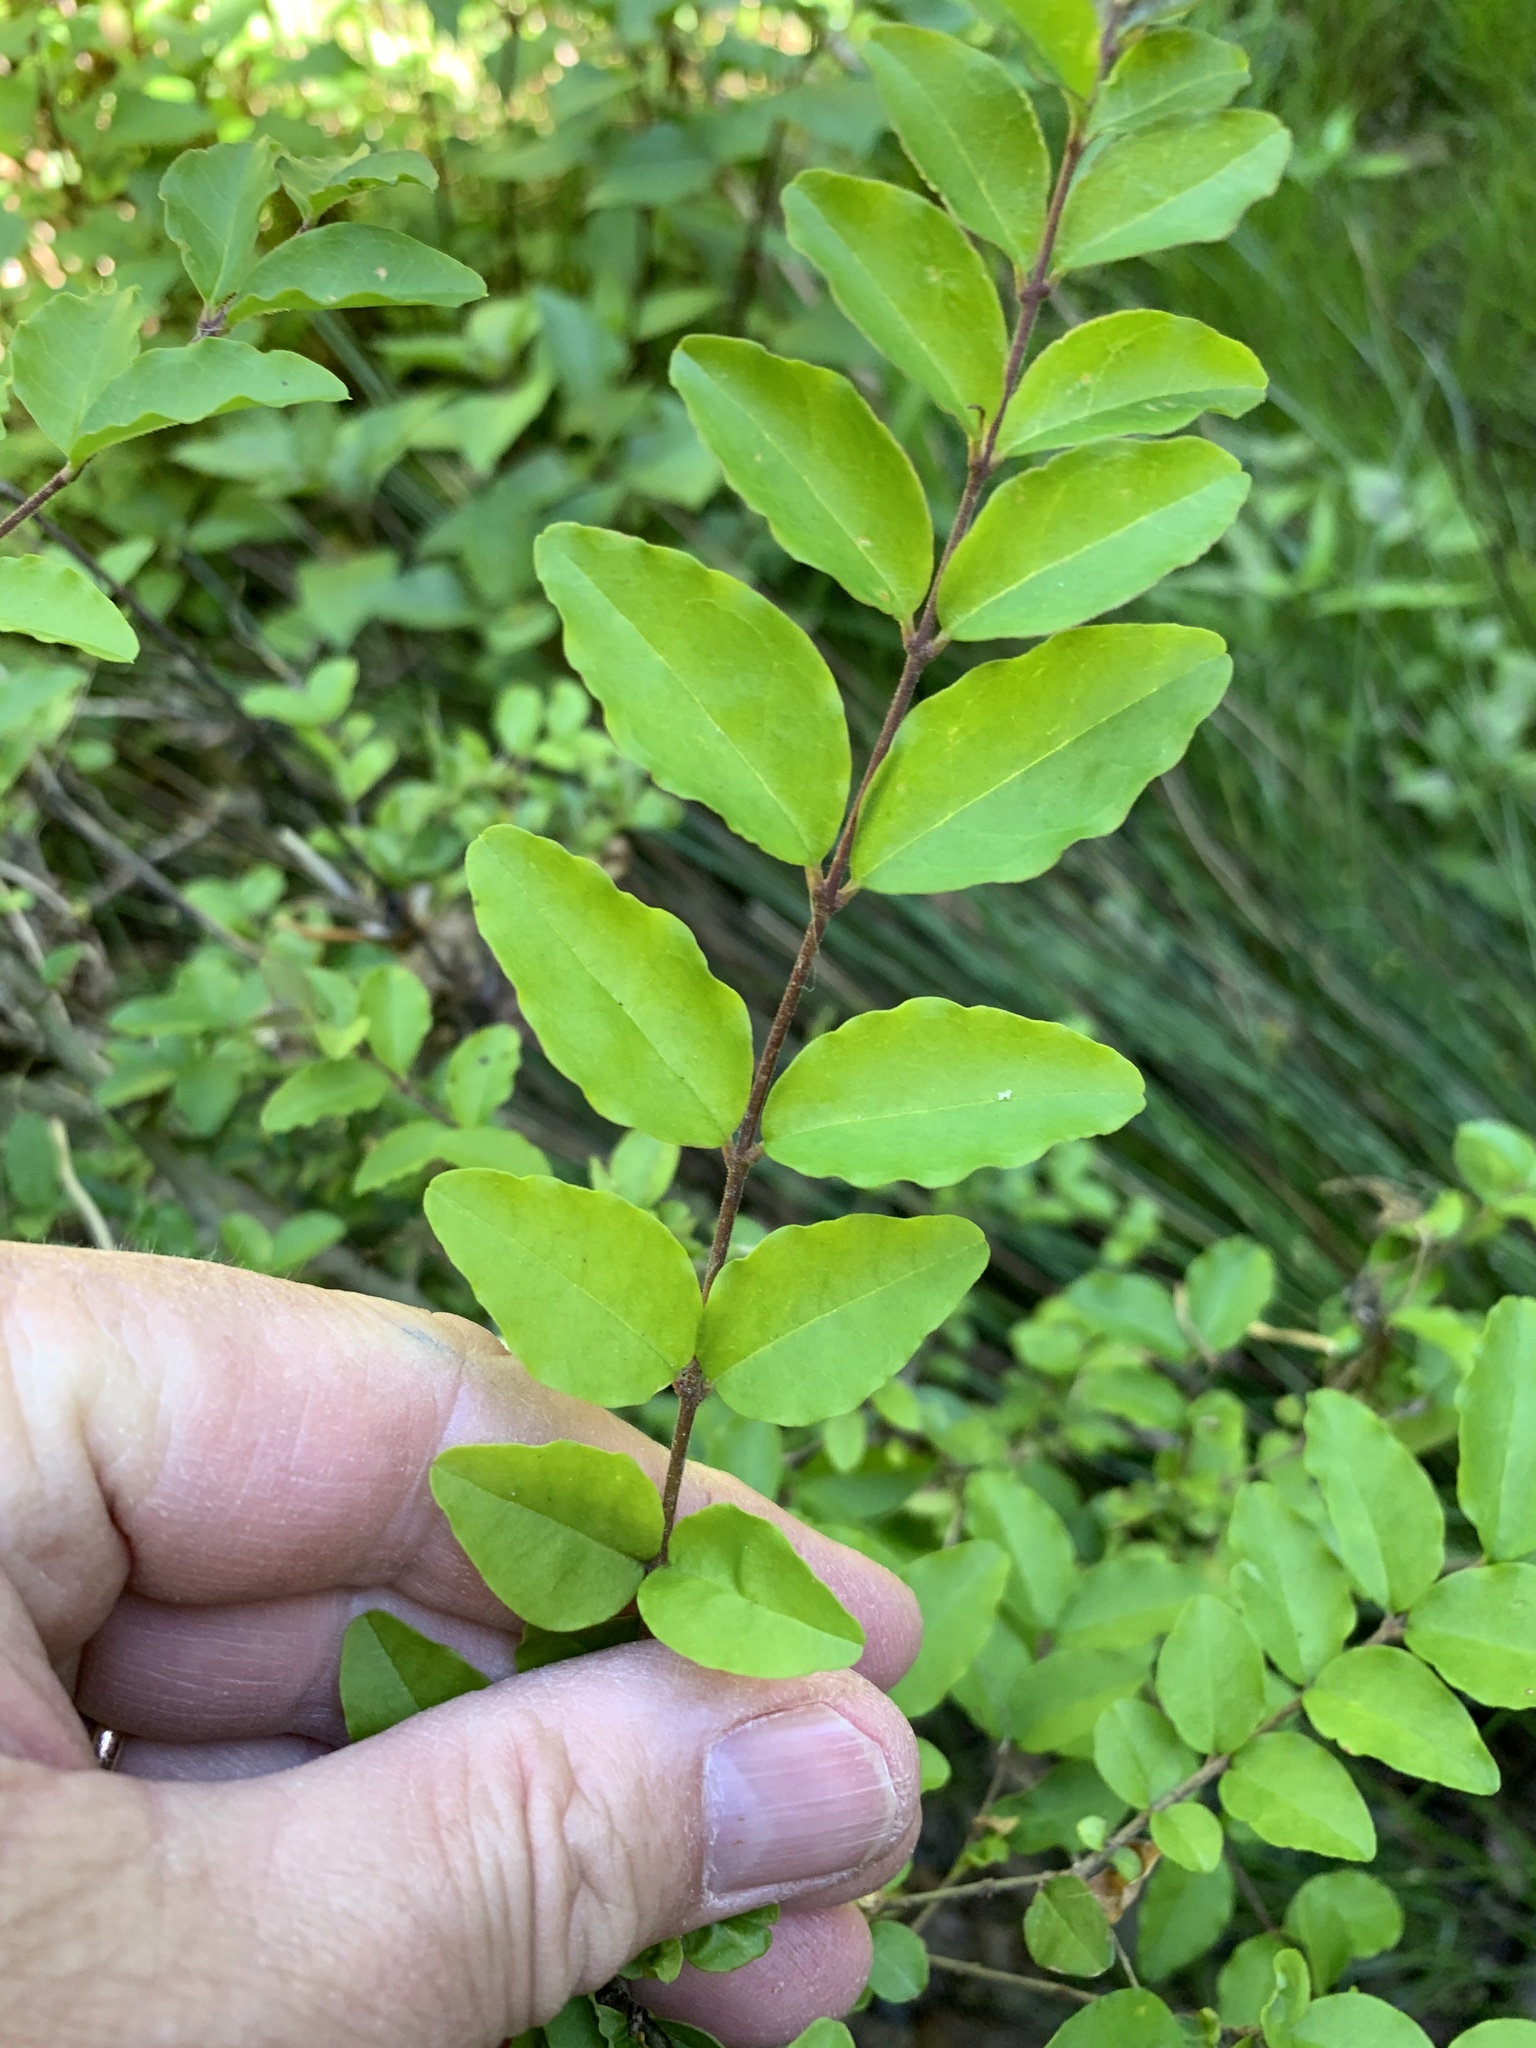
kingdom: Plantae
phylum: Tracheophyta
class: Magnoliopsida
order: Lamiales
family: Oleaceae
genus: Ligustrum
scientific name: Ligustrum sinense
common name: Chinese privet
